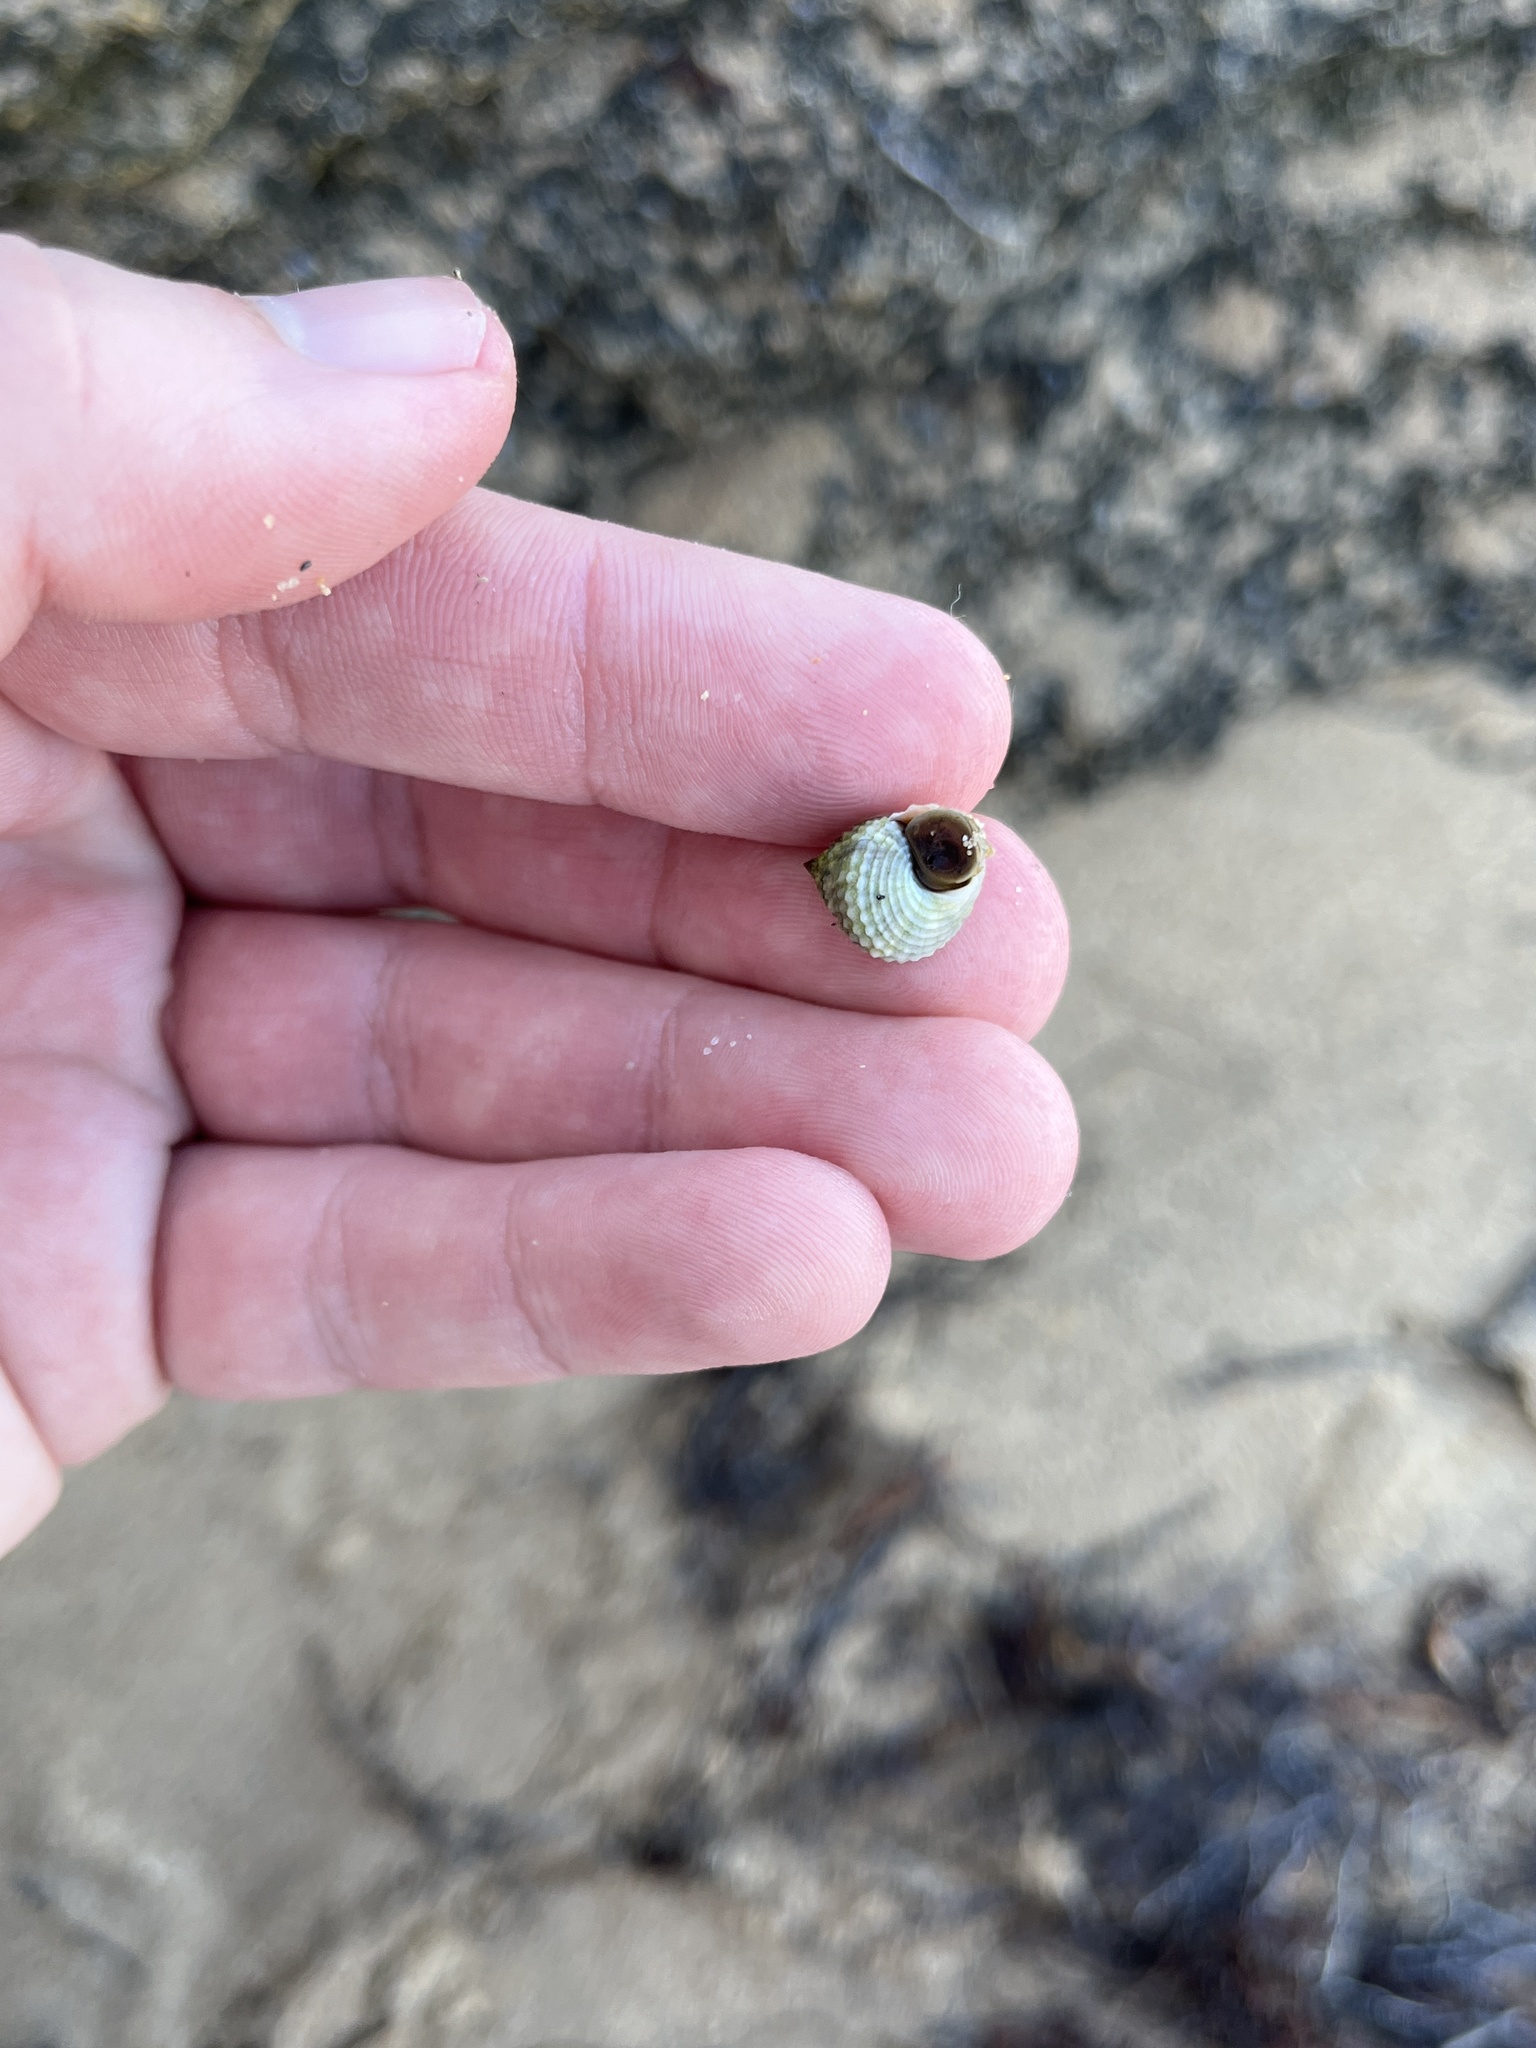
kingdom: Animalia
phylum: Mollusca
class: Gastropoda
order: Littorinimorpha
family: Littorinidae
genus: Cenchritis
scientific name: Cenchritis muricatus
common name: Beaded periwinkle
